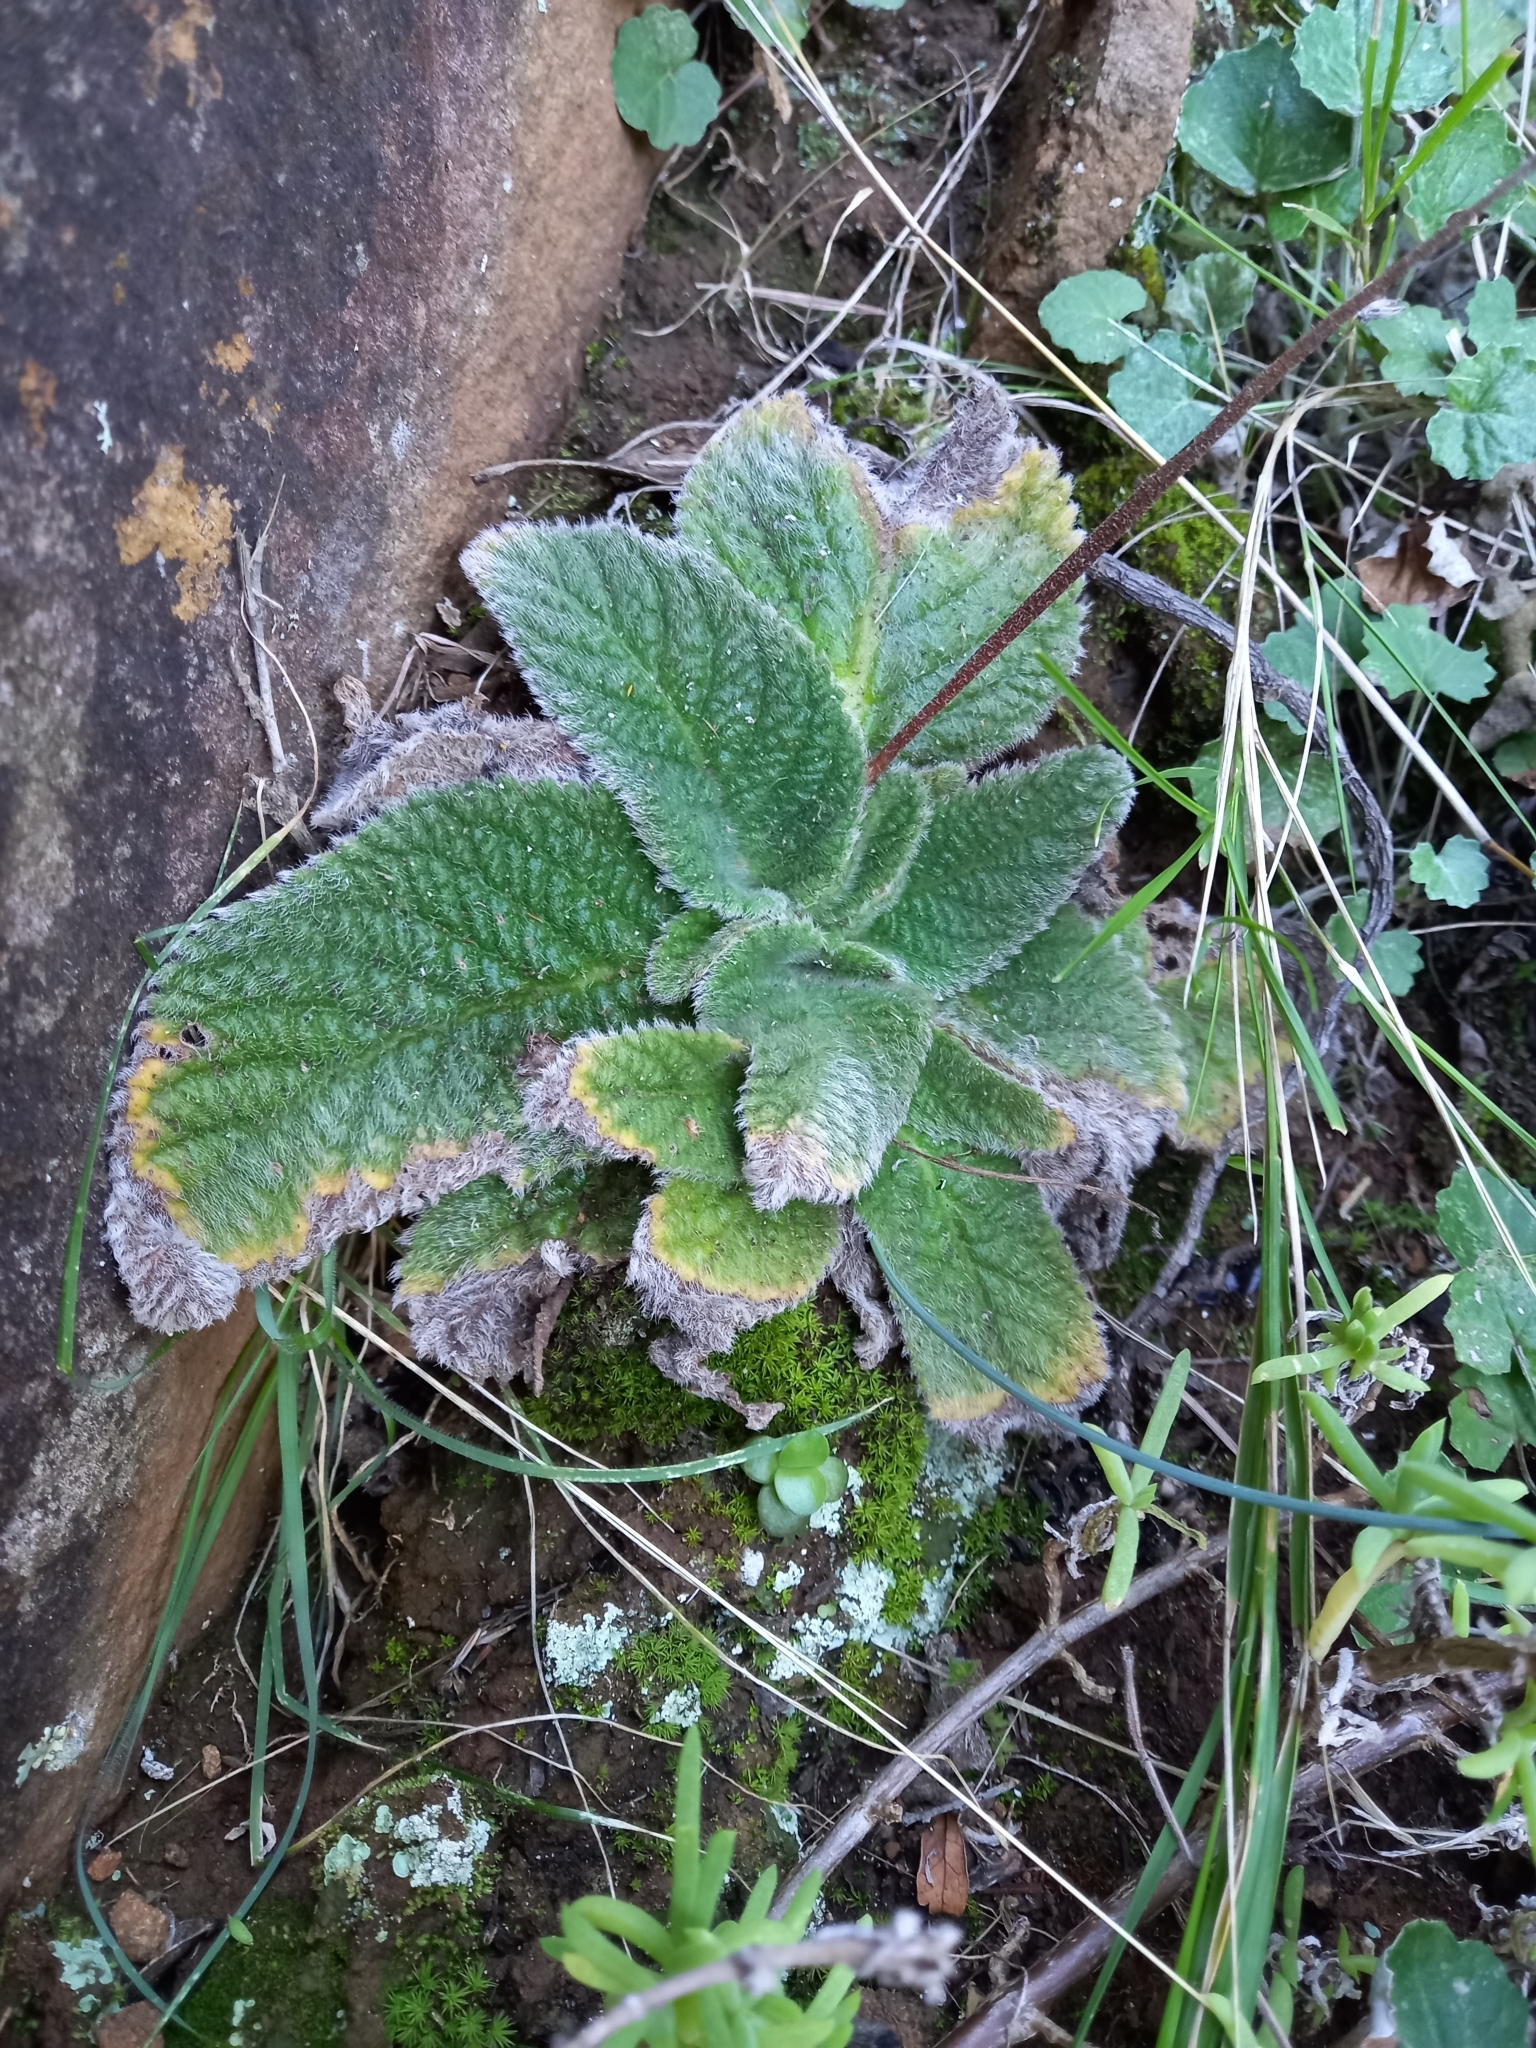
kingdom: Plantae
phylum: Tracheophyta
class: Magnoliopsida
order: Lamiales
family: Gesneriaceae
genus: Streptocarpus
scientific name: Streptocarpus meyeri
